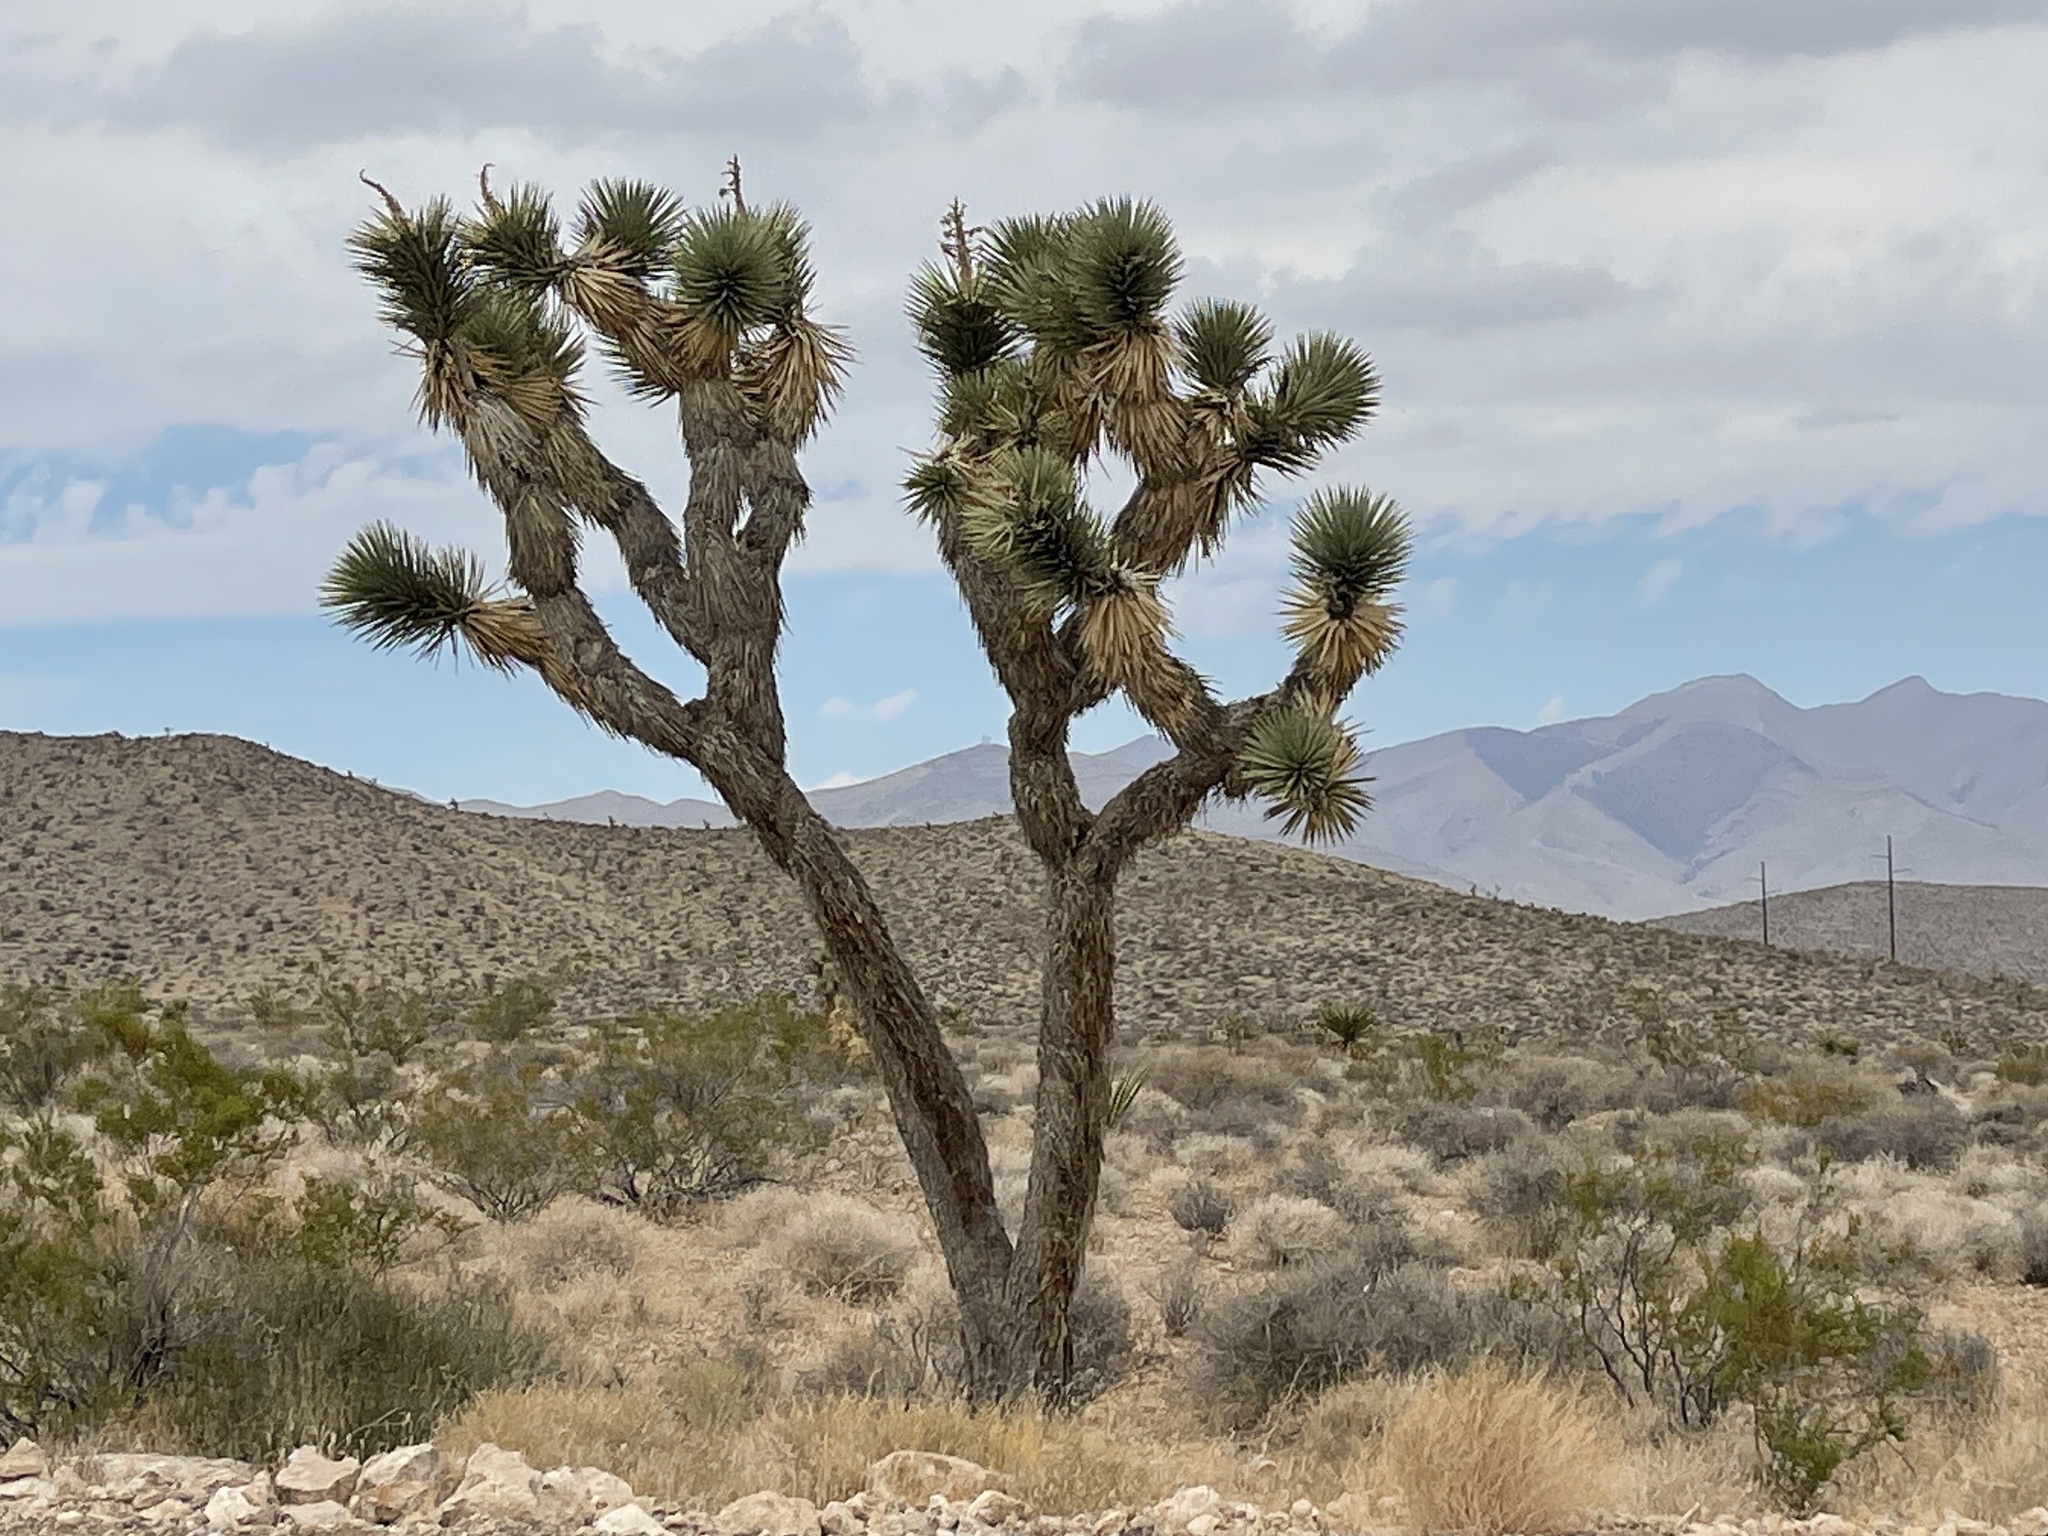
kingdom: Plantae
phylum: Tracheophyta
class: Liliopsida
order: Asparagales
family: Asparagaceae
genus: Yucca
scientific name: Yucca brevifolia
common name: Joshua tree
